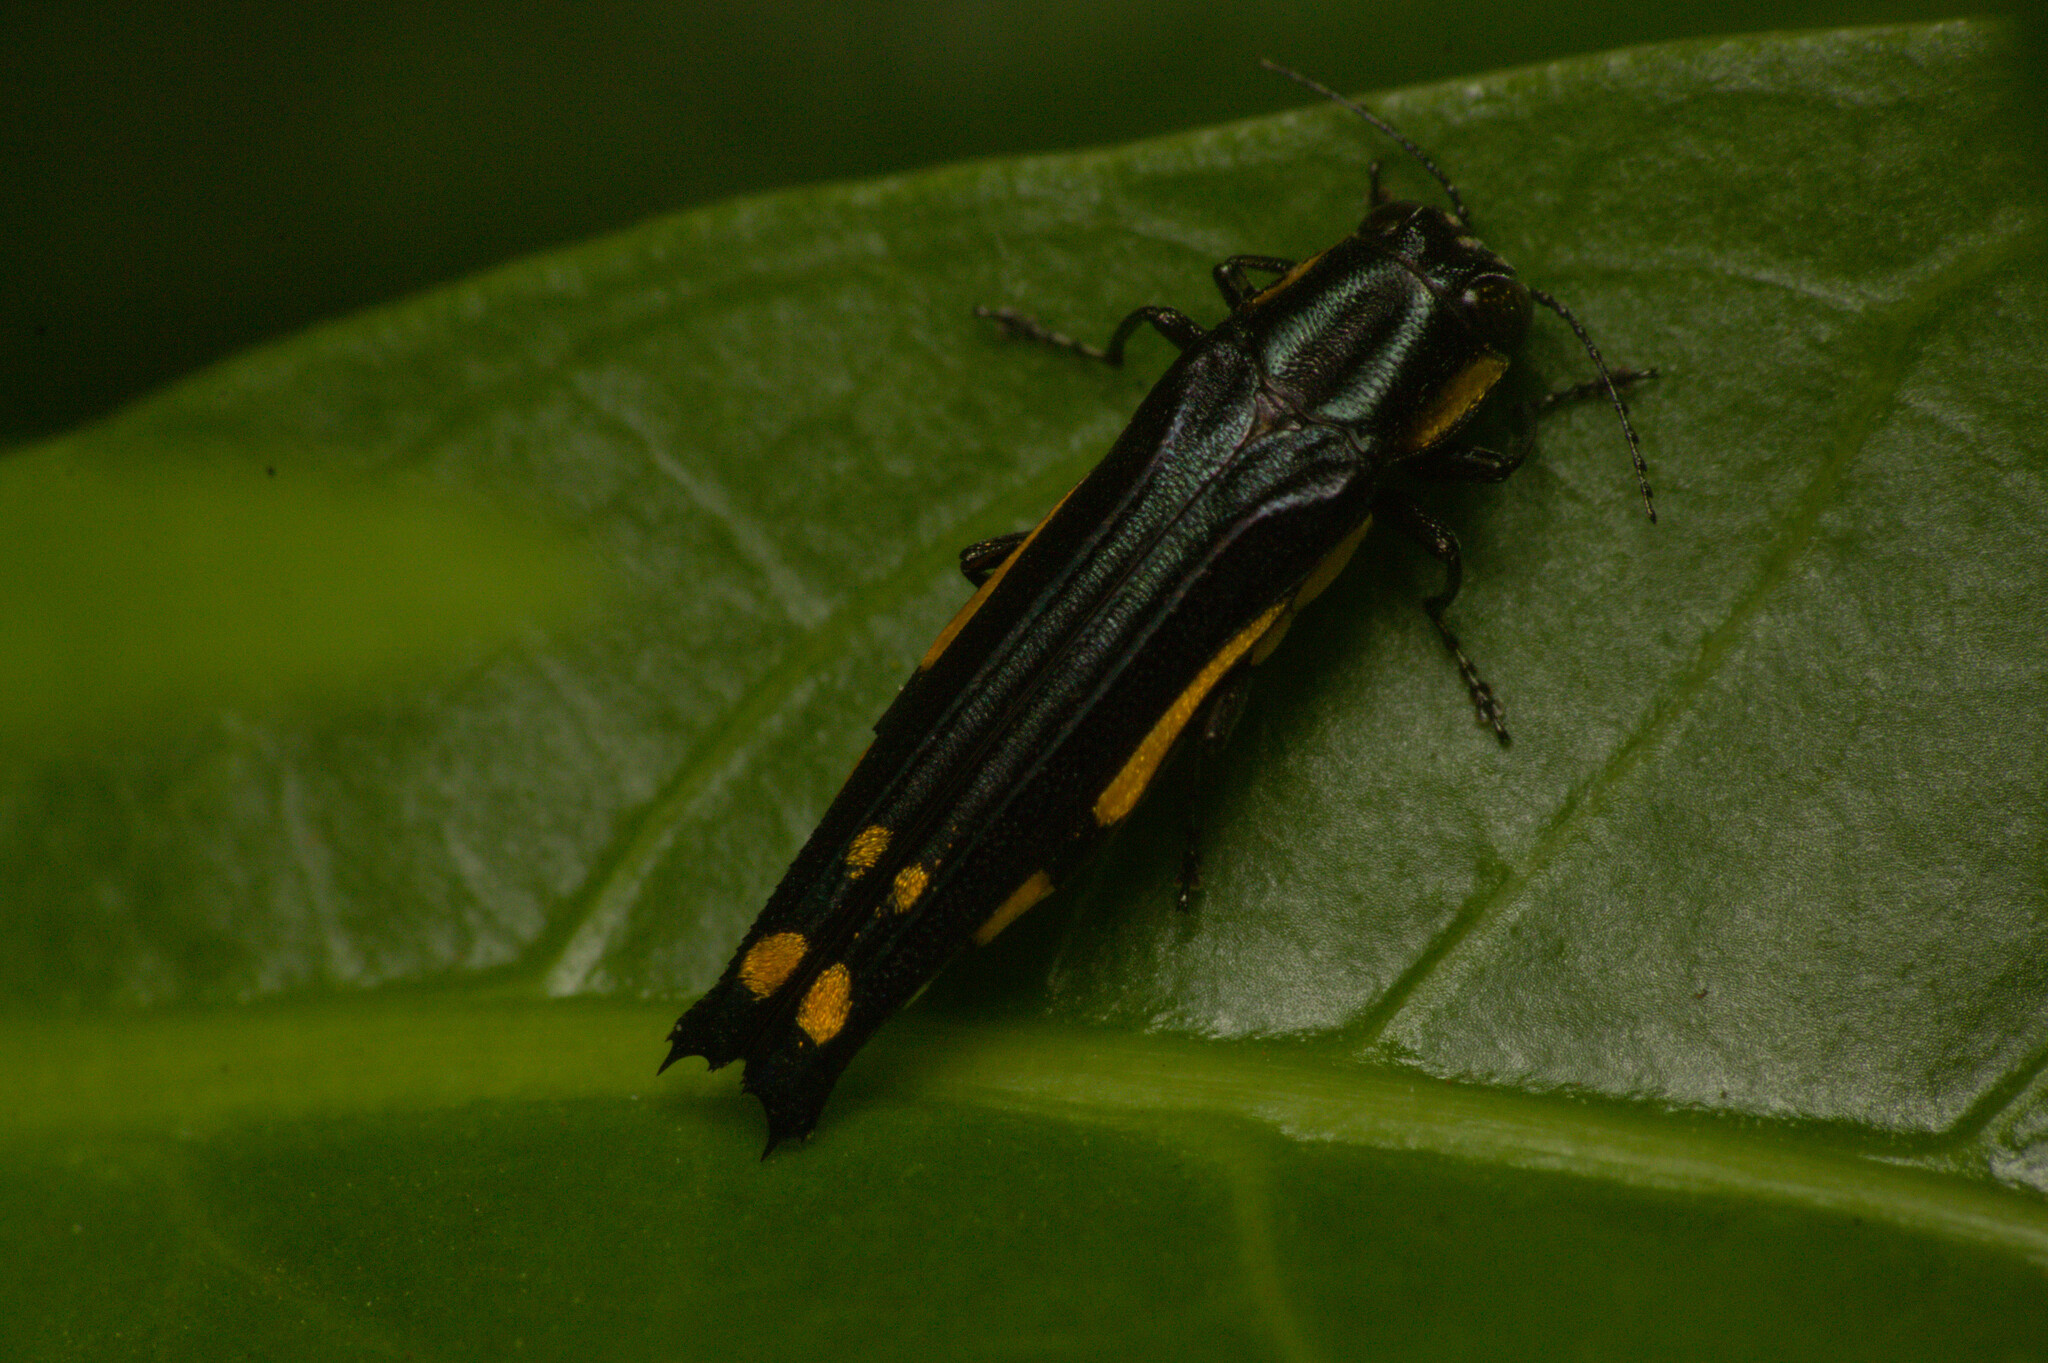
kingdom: Animalia
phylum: Arthropoda
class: Insecta
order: Coleoptera
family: Buprestidae
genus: Agrilus
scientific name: Agrilus chrysostictus
